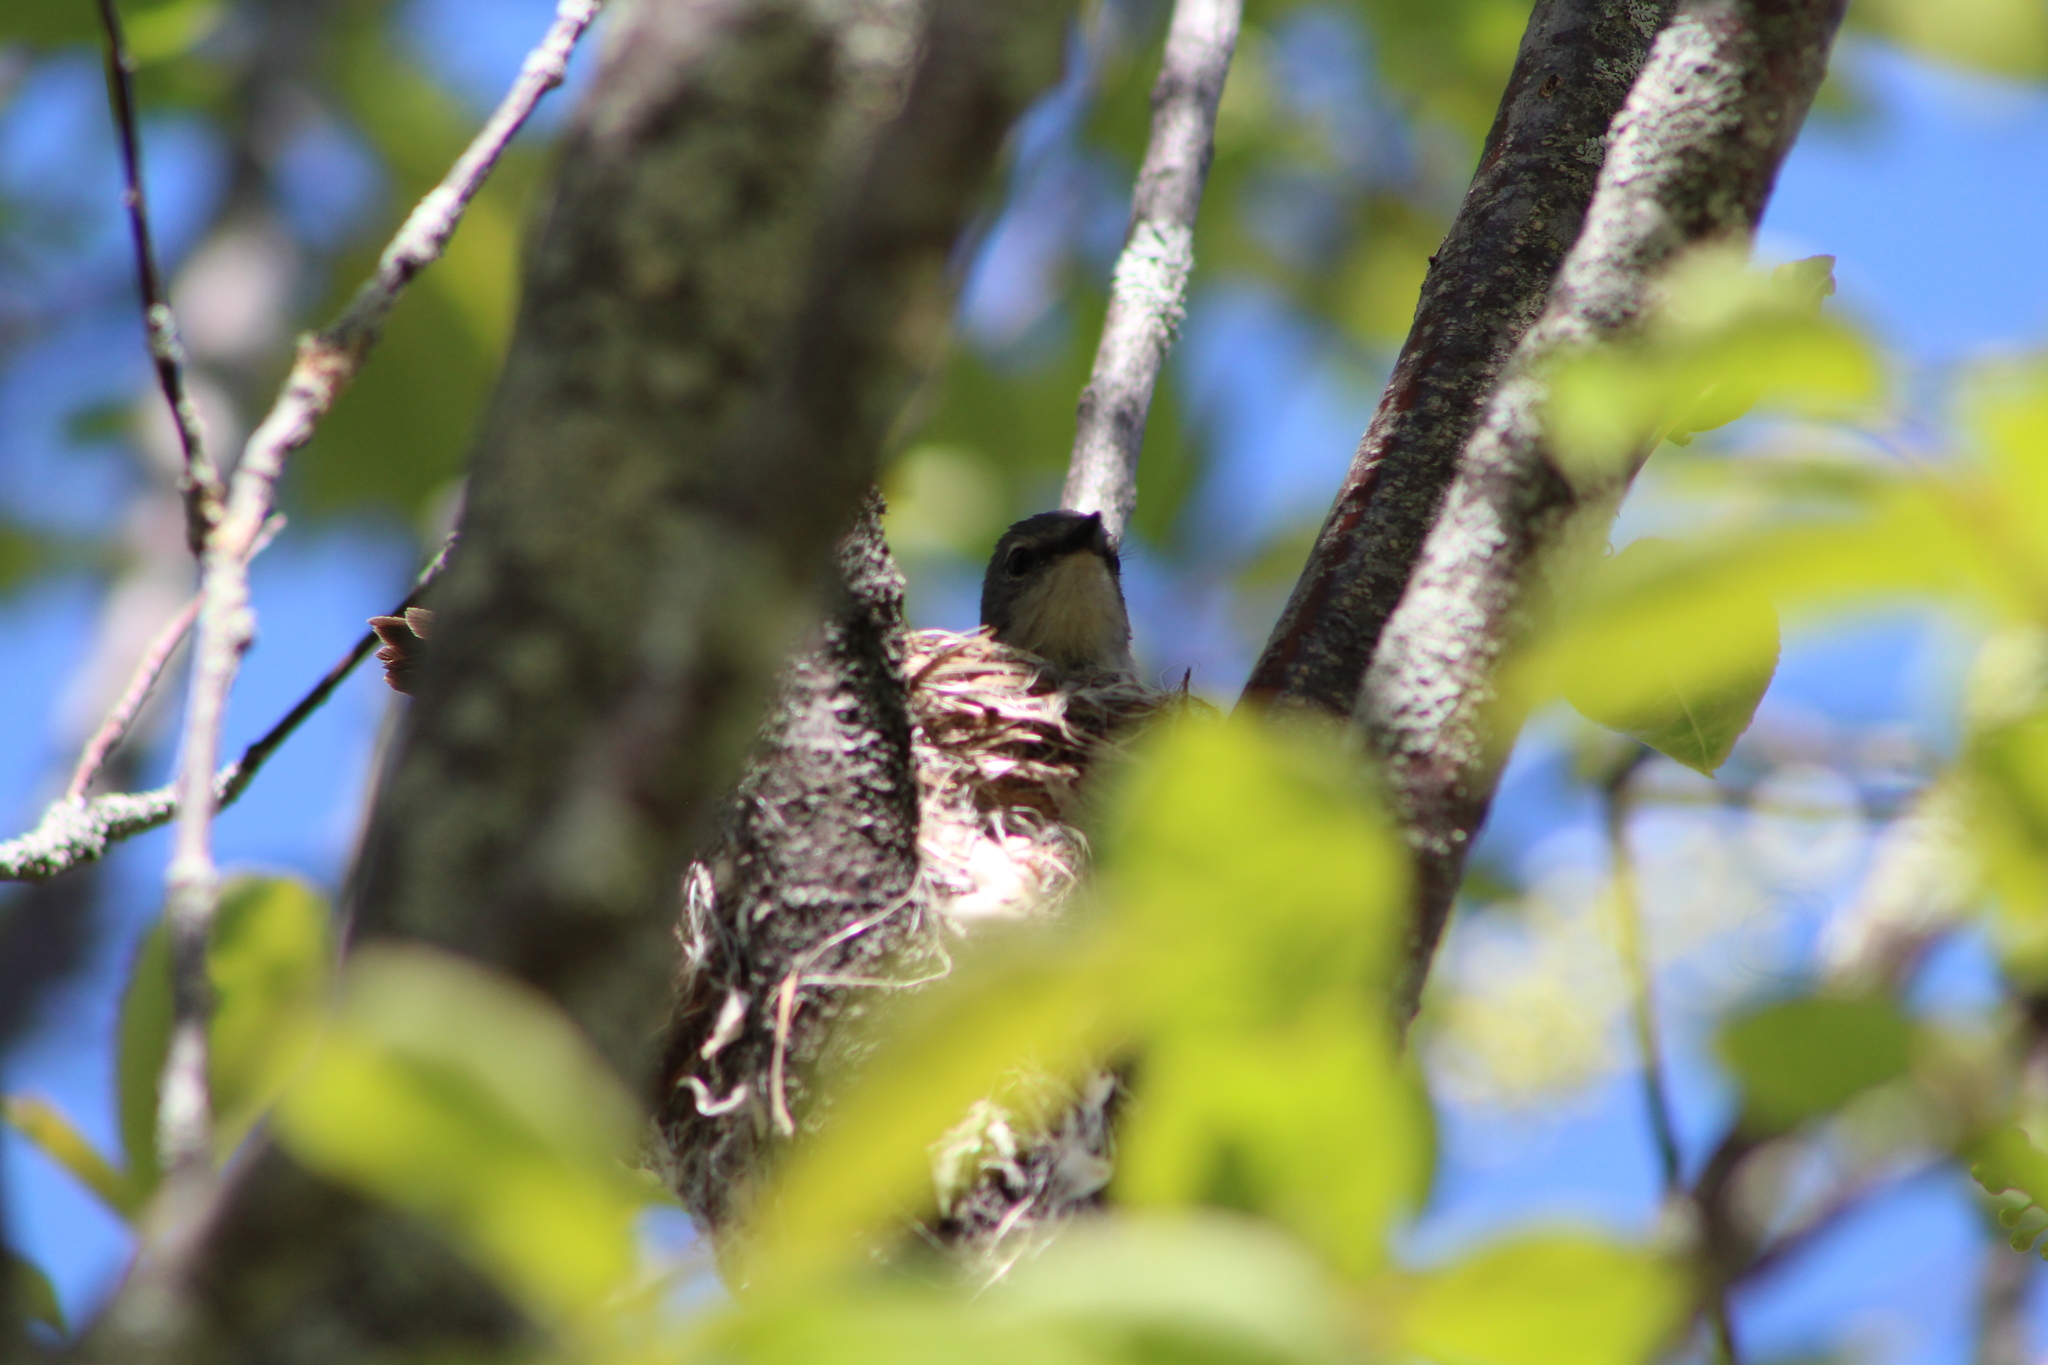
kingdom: Animalia
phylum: Chordata
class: Aves
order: Passeriformes
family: Parulidae
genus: Setophaga
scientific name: Setophaga ruticilla
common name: American redstart
